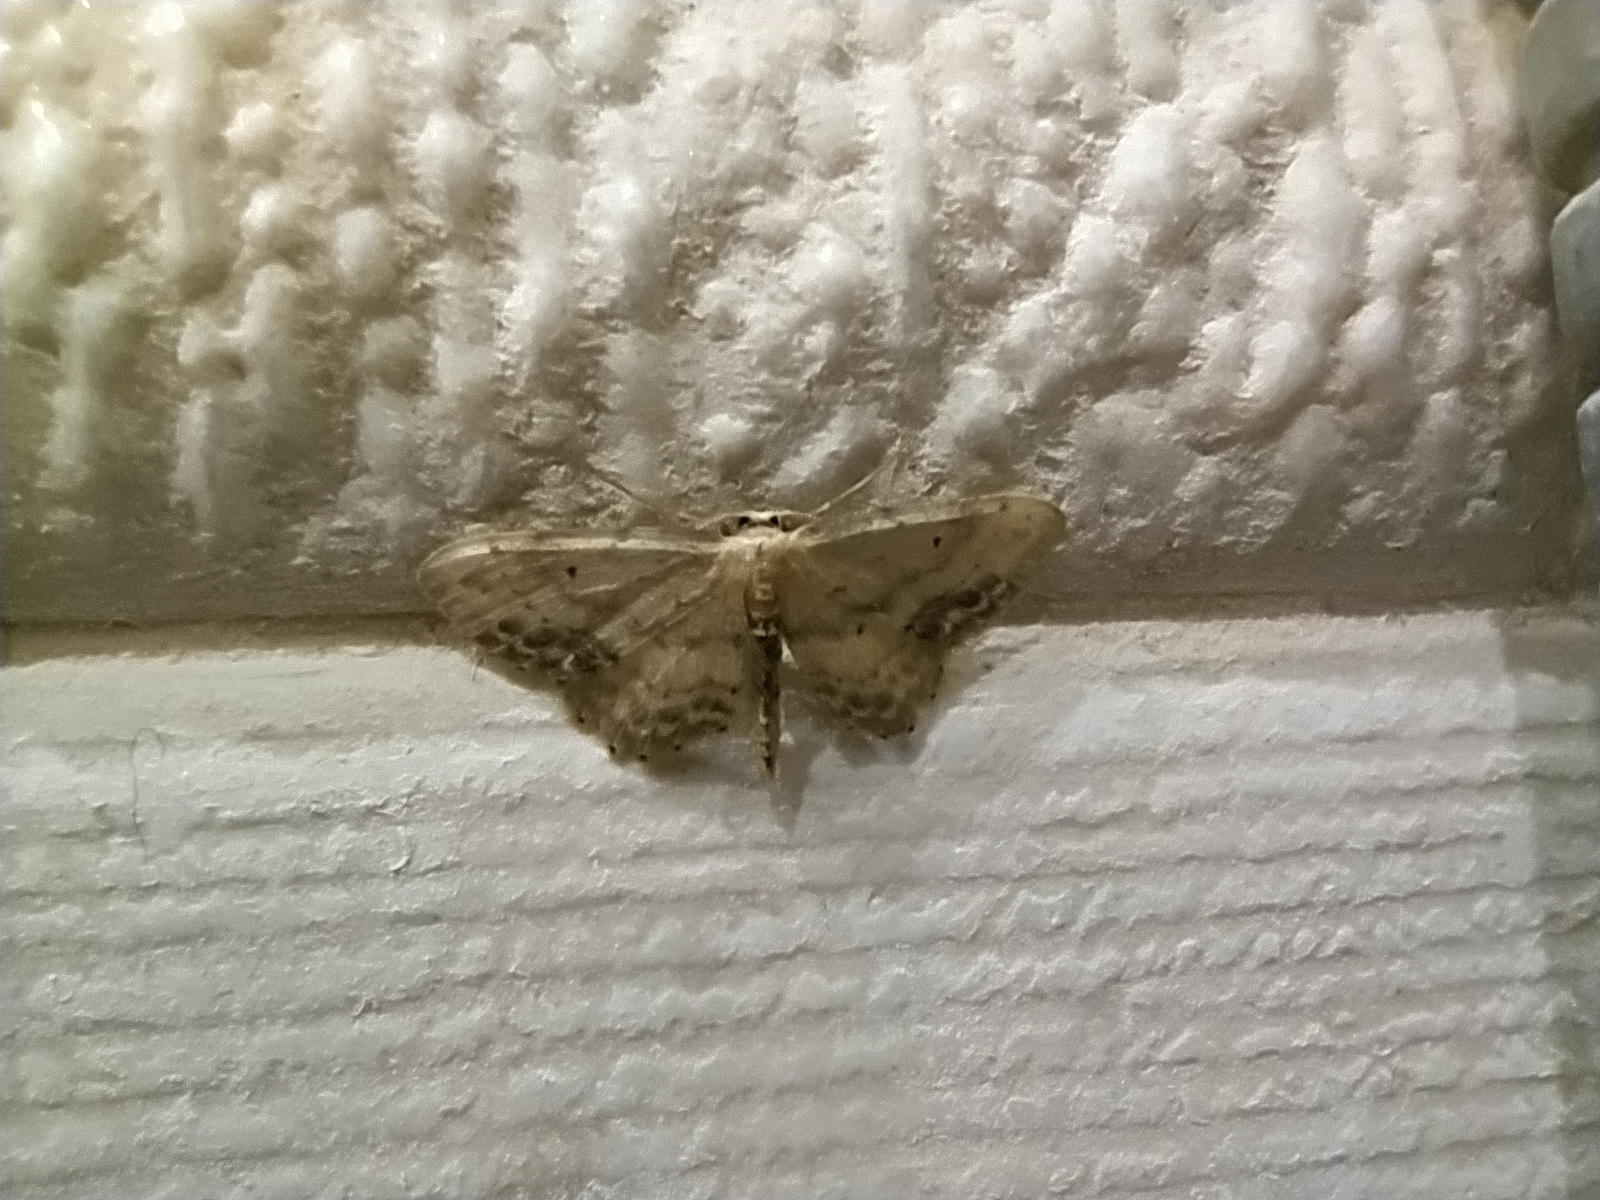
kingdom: Animalia
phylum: Arthropoda
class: Insecta
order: Lepidoptera
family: Geometridae
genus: Idaea
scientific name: Idaea dimidiata
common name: Single-dotted wave
